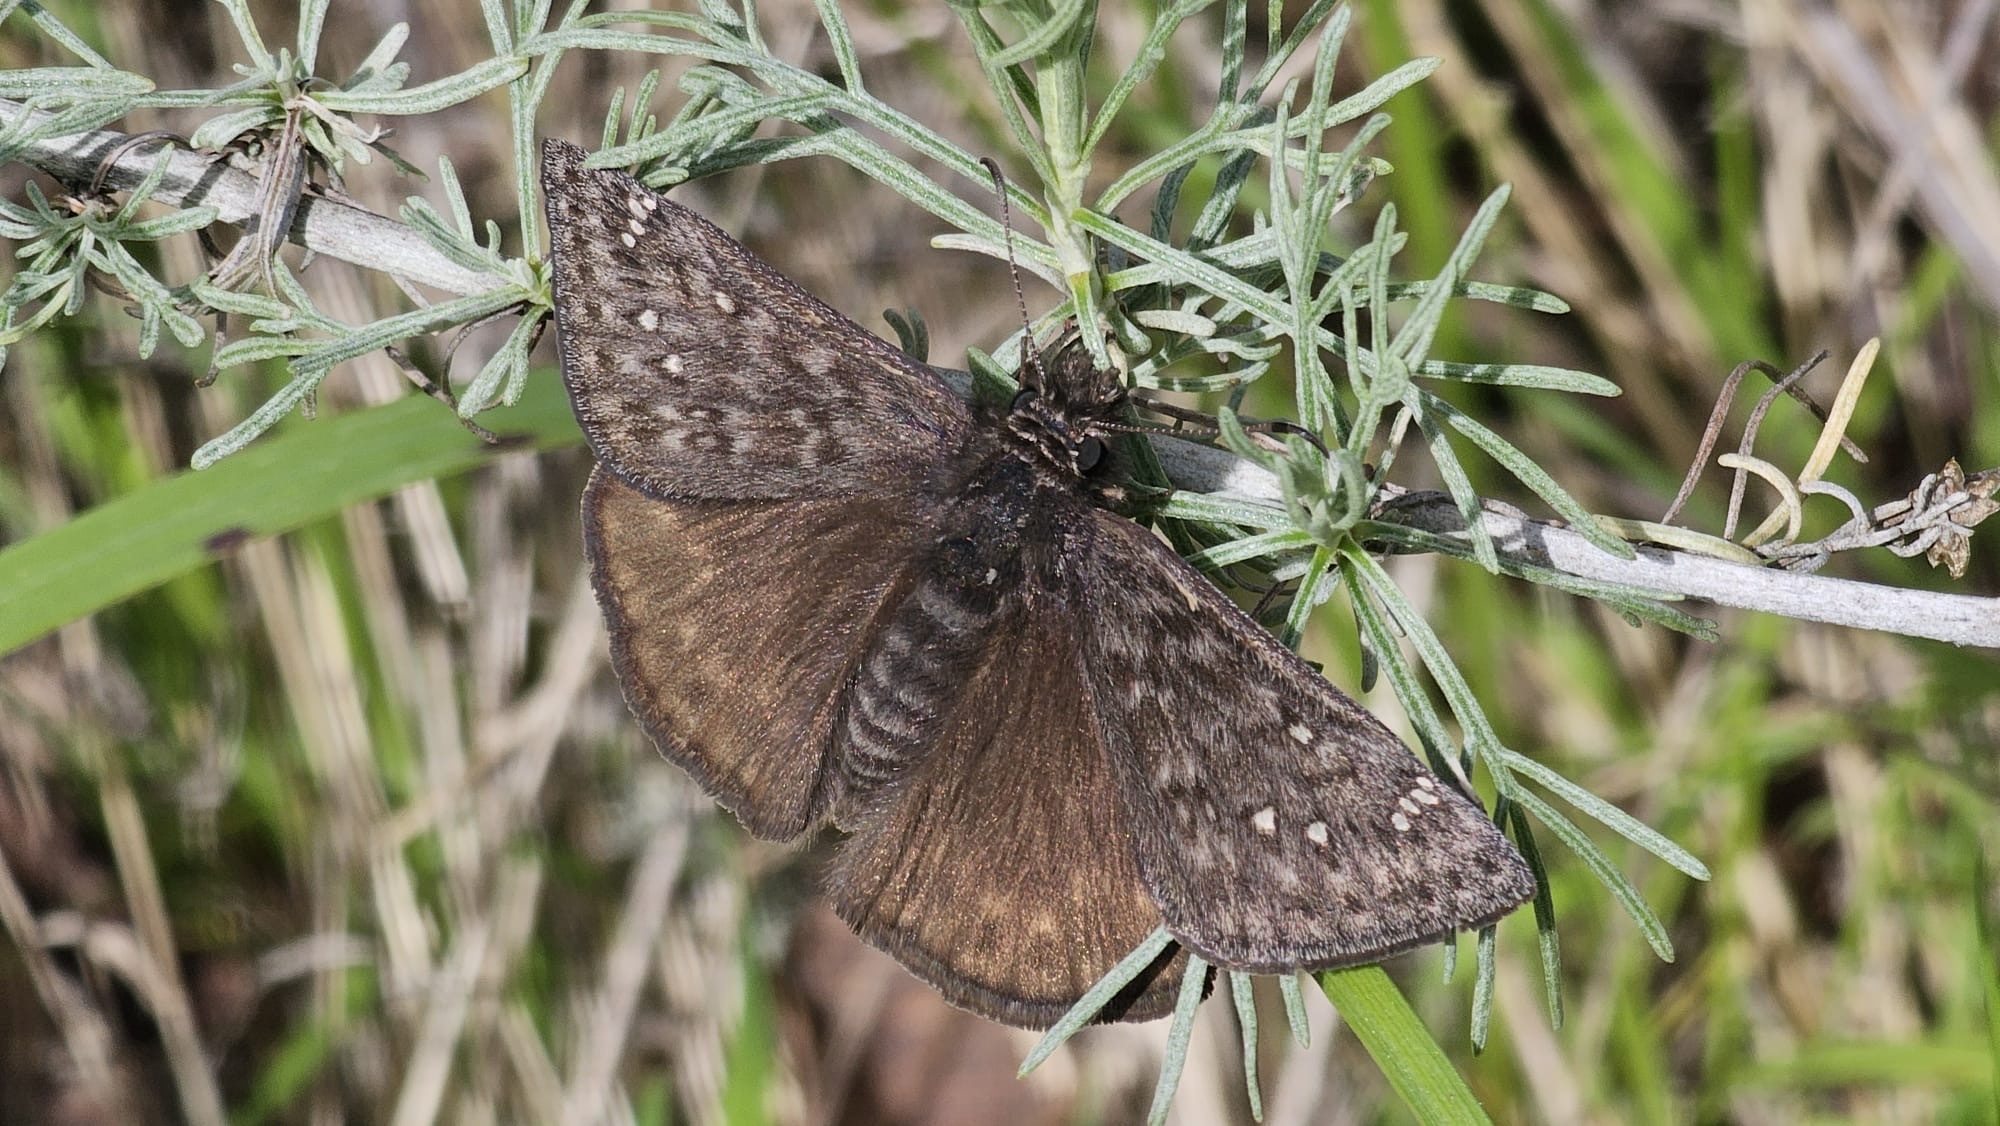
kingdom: Animalia
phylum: Arthropoda
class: Insecta
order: Lepidoptera
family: Hesperiidae
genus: Erynnis
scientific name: Erynnis propertius
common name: Propertius duskywing
